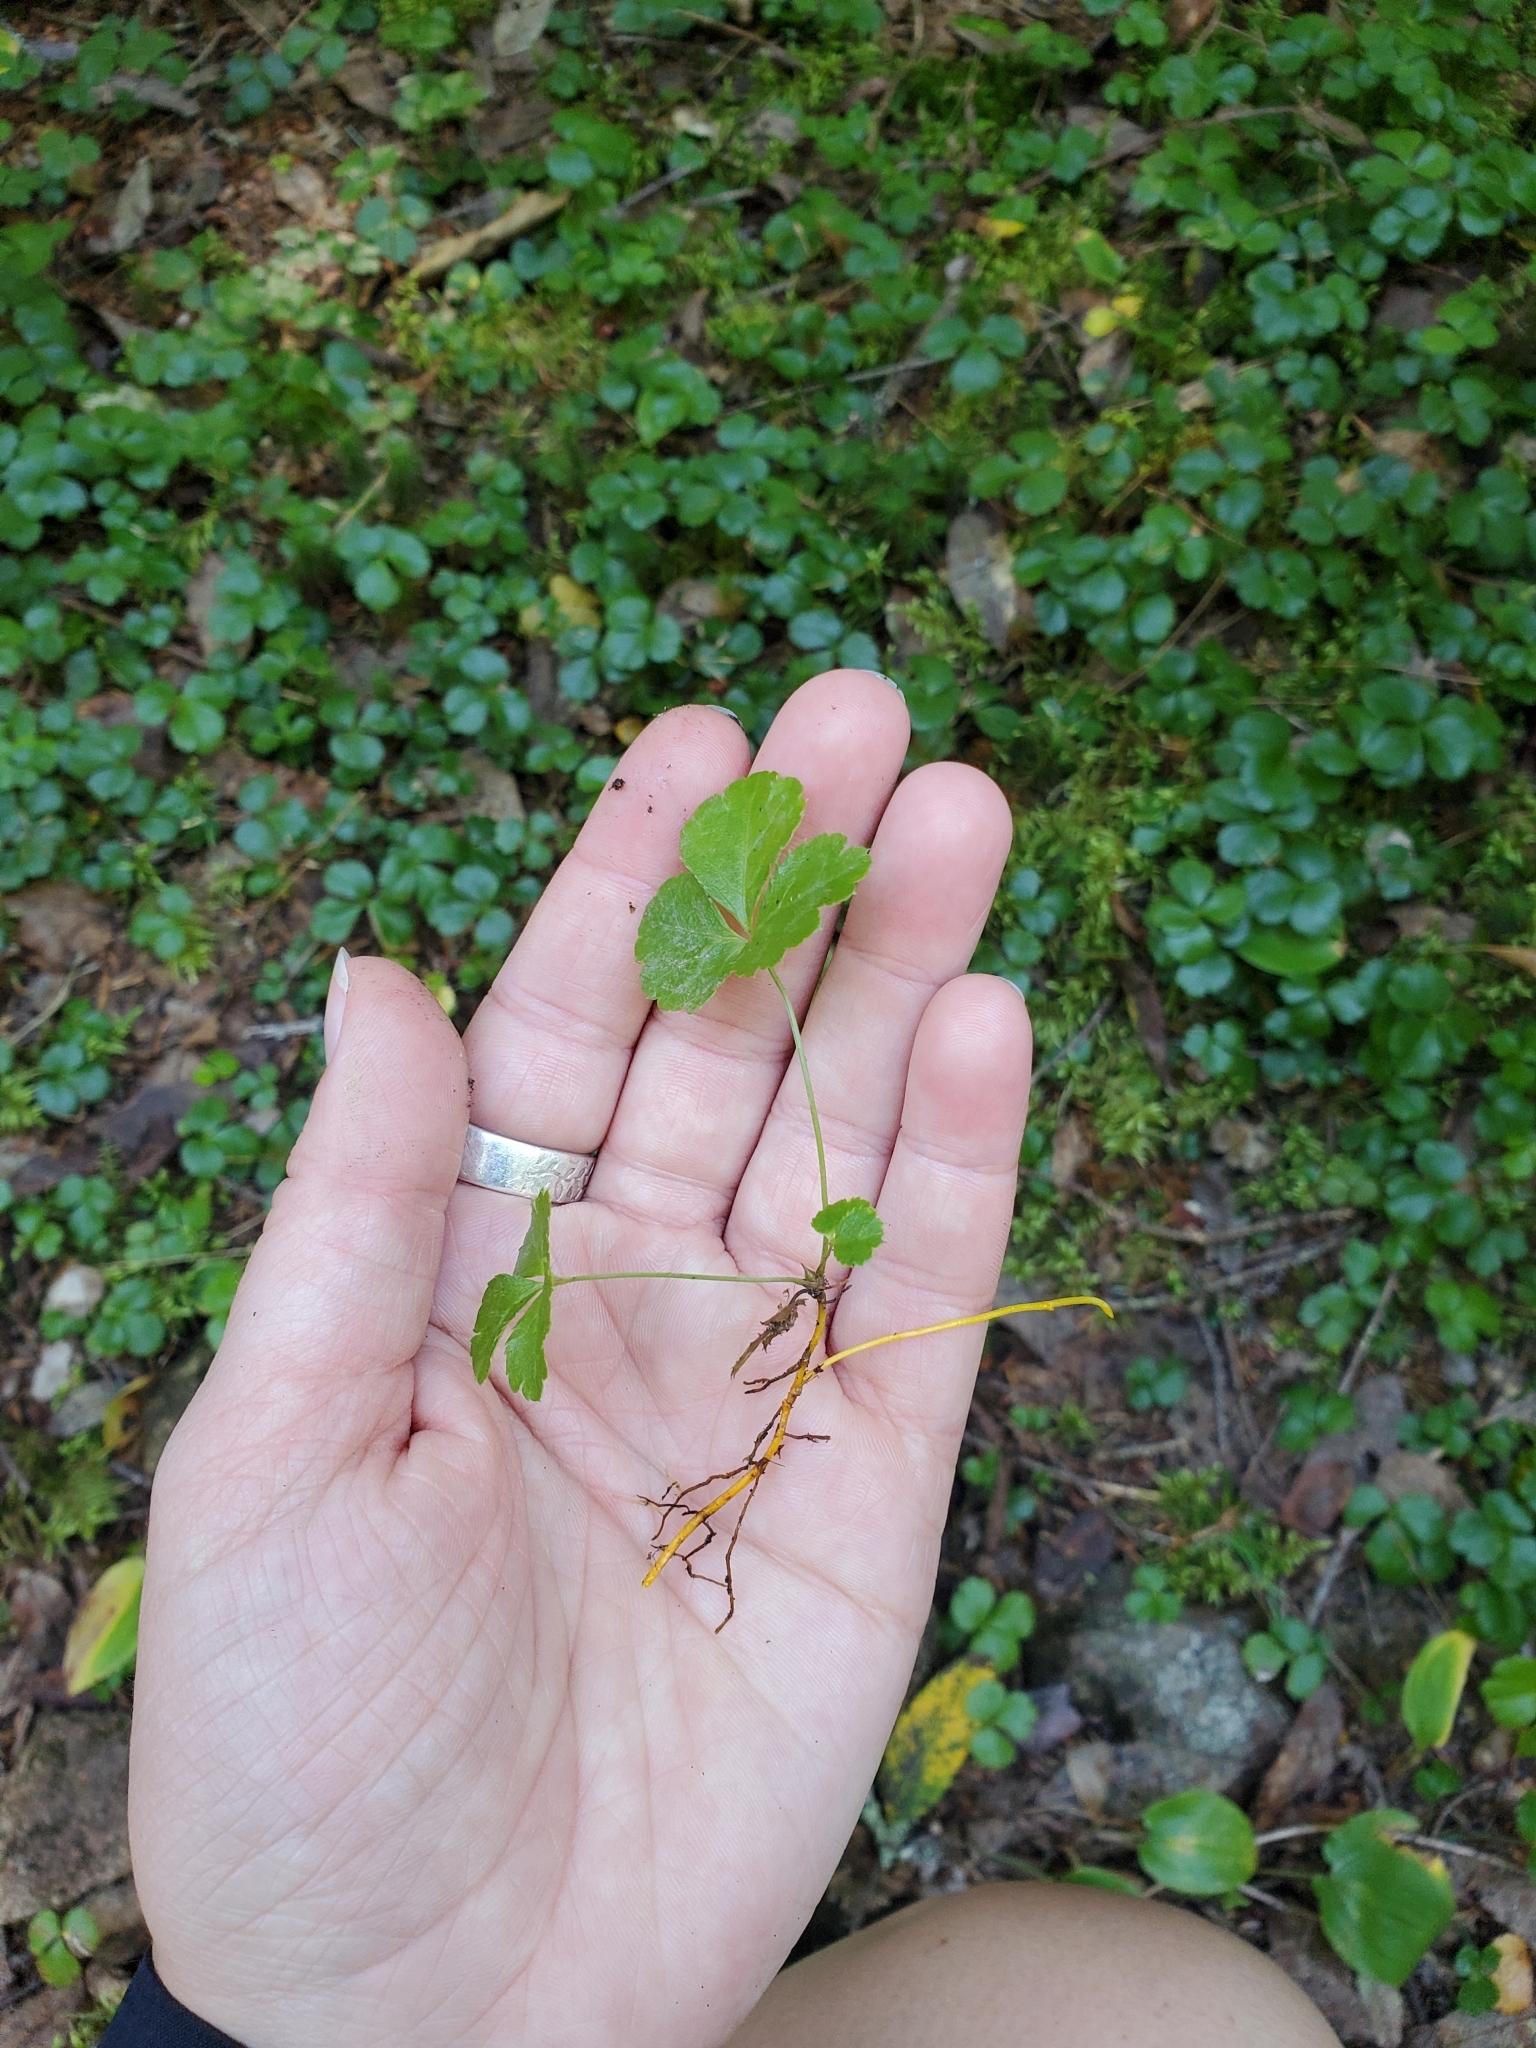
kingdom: Plantae
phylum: Tracheophyta
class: Magnoliopsida
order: Ranunculales
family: Ranunculaceae
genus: Coptis
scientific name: Coptis trifolia
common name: Canker-root
